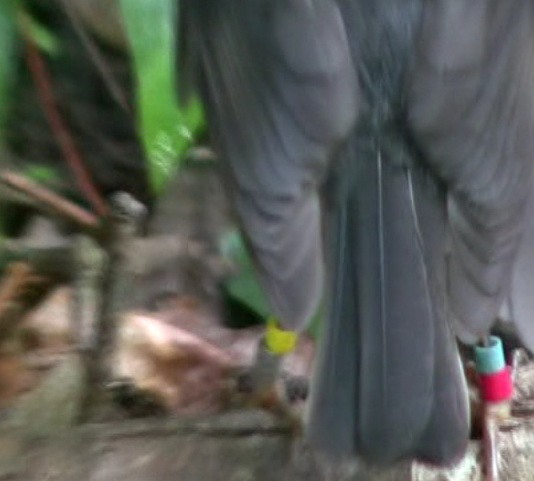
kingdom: Animalia
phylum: Chordata
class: Aves
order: Passeriformes
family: Petroicidae
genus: Petroica
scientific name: Petroica australis
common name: New zealand robin
